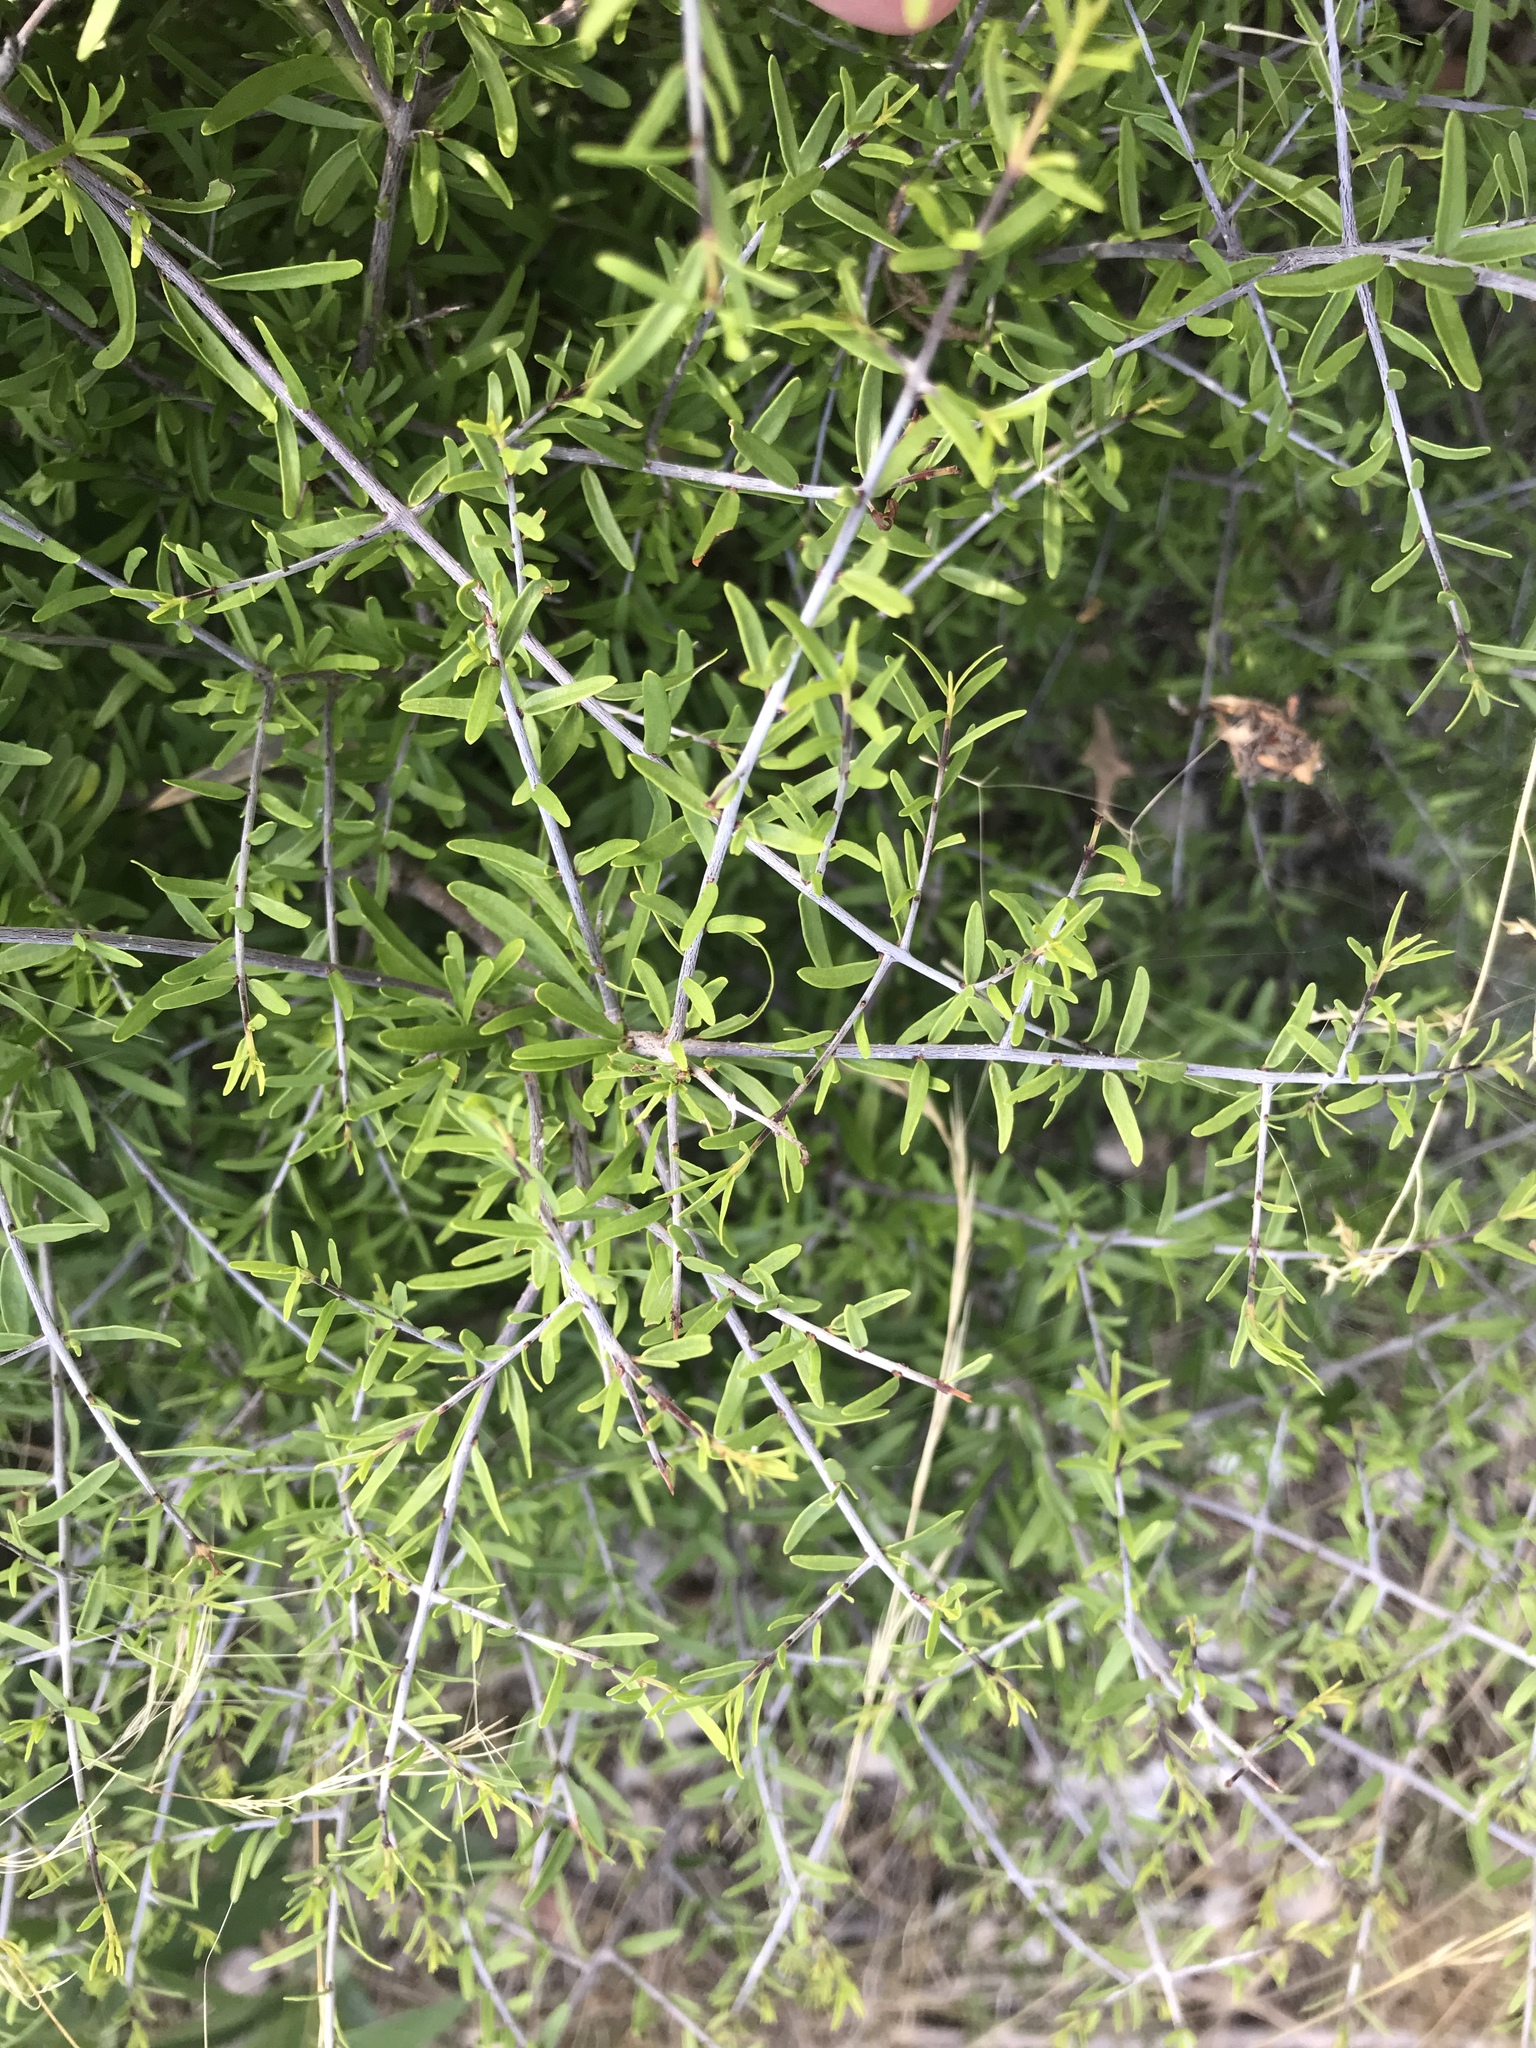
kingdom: Plantae
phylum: Tracheophyta
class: Magnoliopsida
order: Lamiales
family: Oleaceae
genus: Forestiera
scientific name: Forestiera angustifolia
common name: Elbowbush
